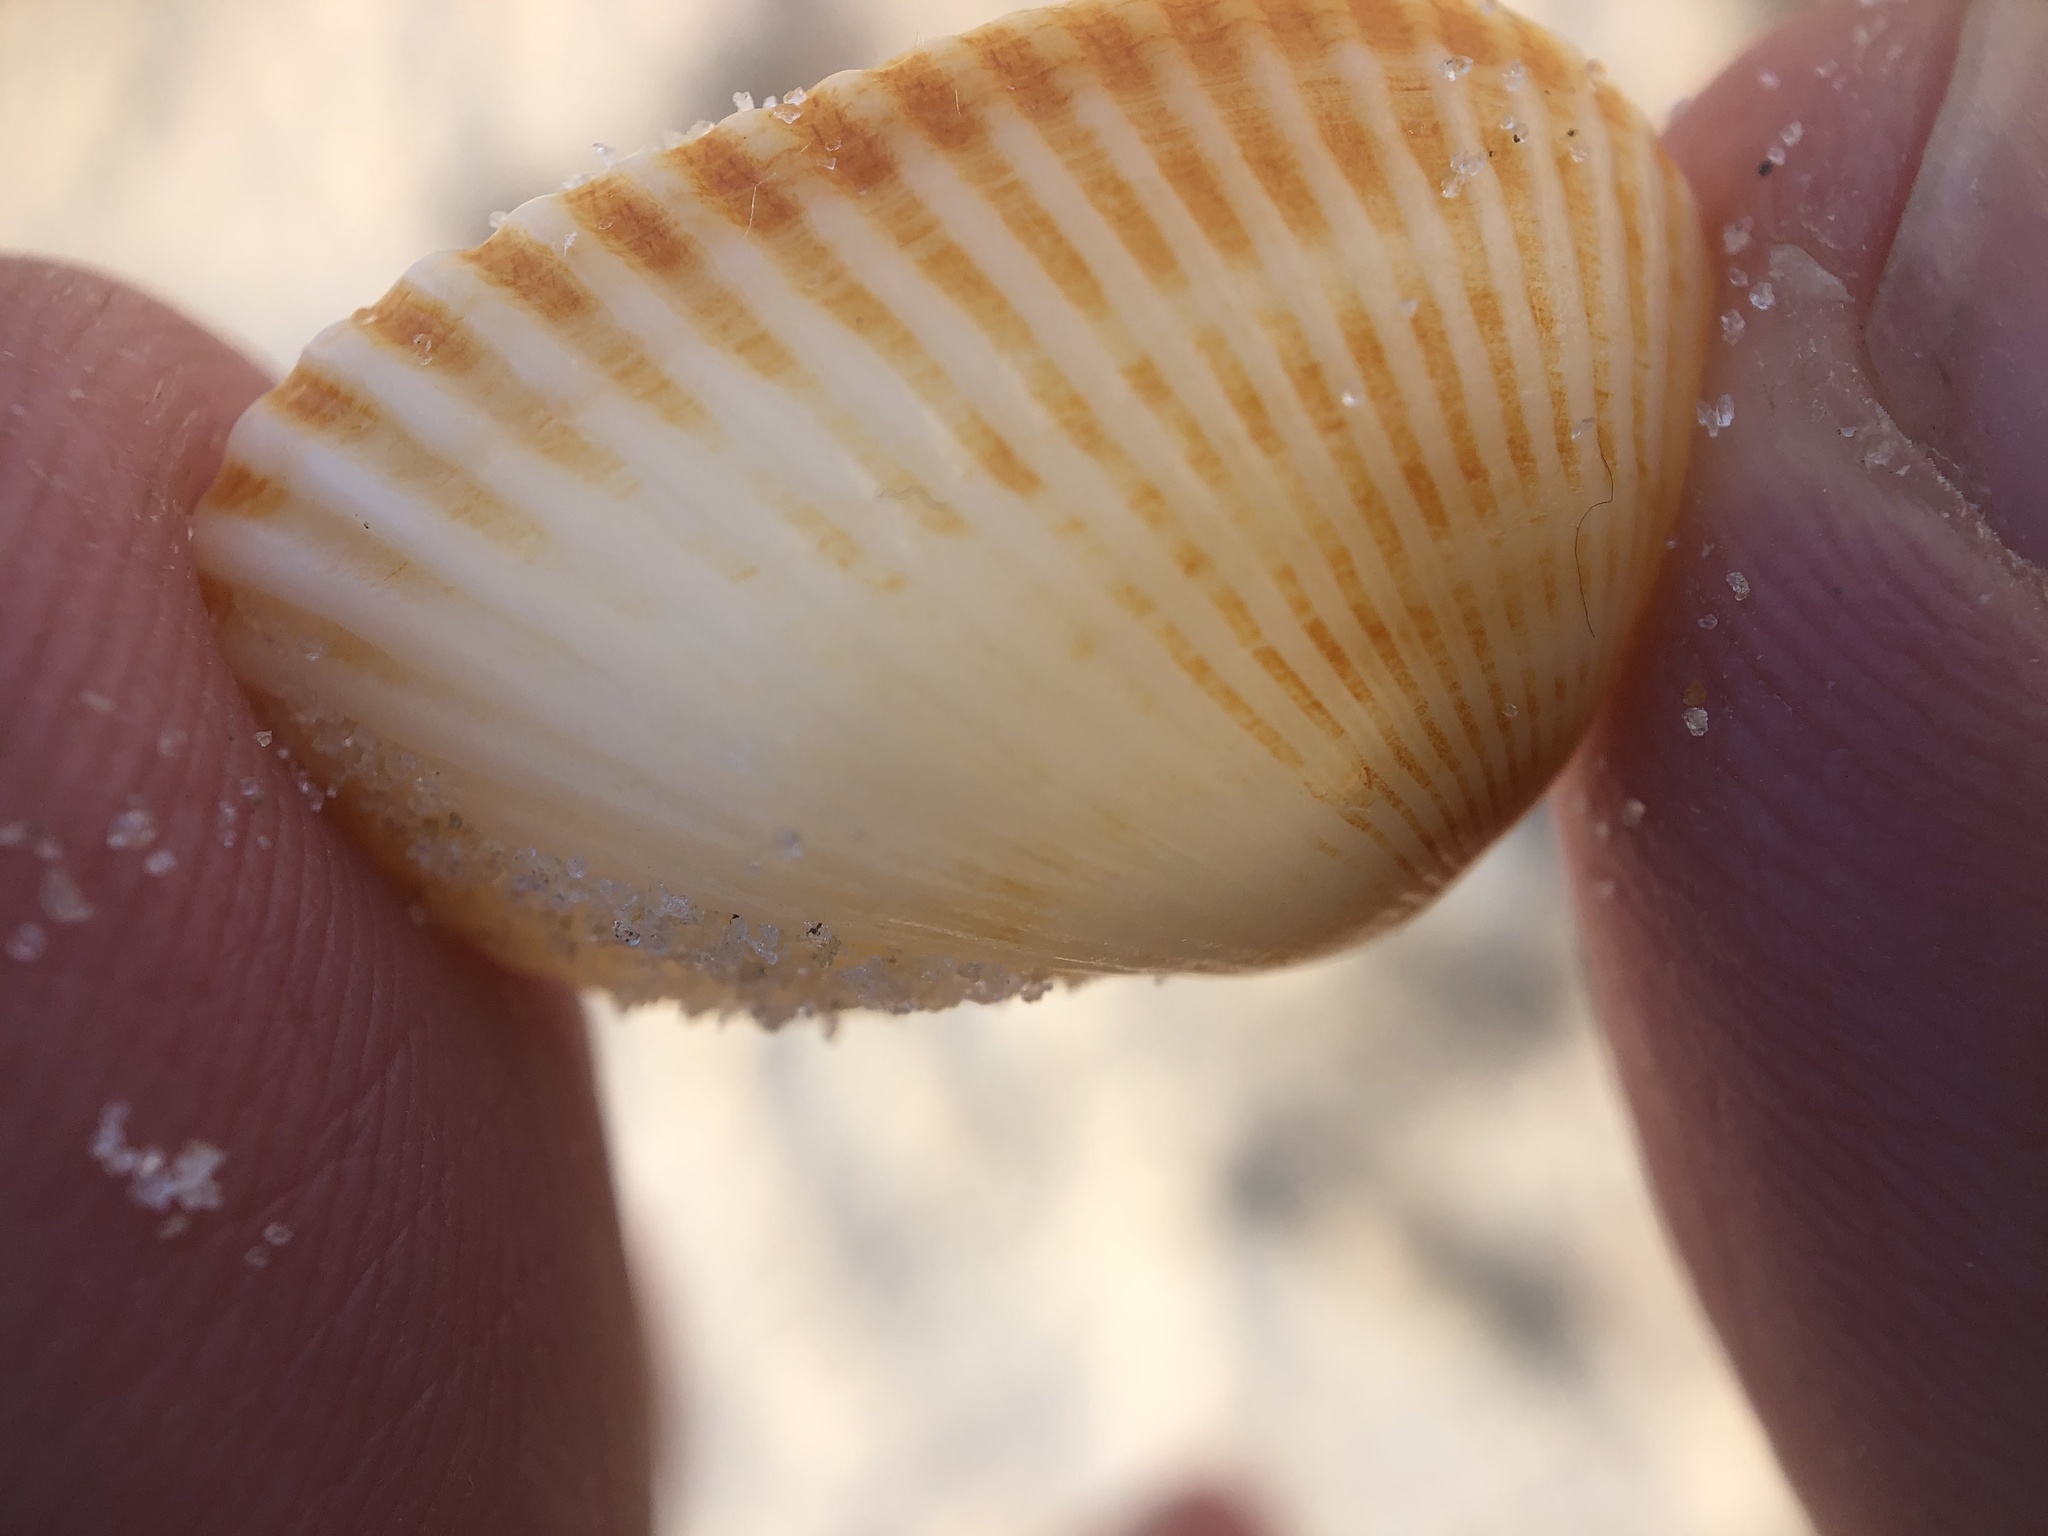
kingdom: Animalia
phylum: Mollusca
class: Bivalvia
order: Arcida
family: Arcidae
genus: Anadara
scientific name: Anadara transversa
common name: Transverse ark
